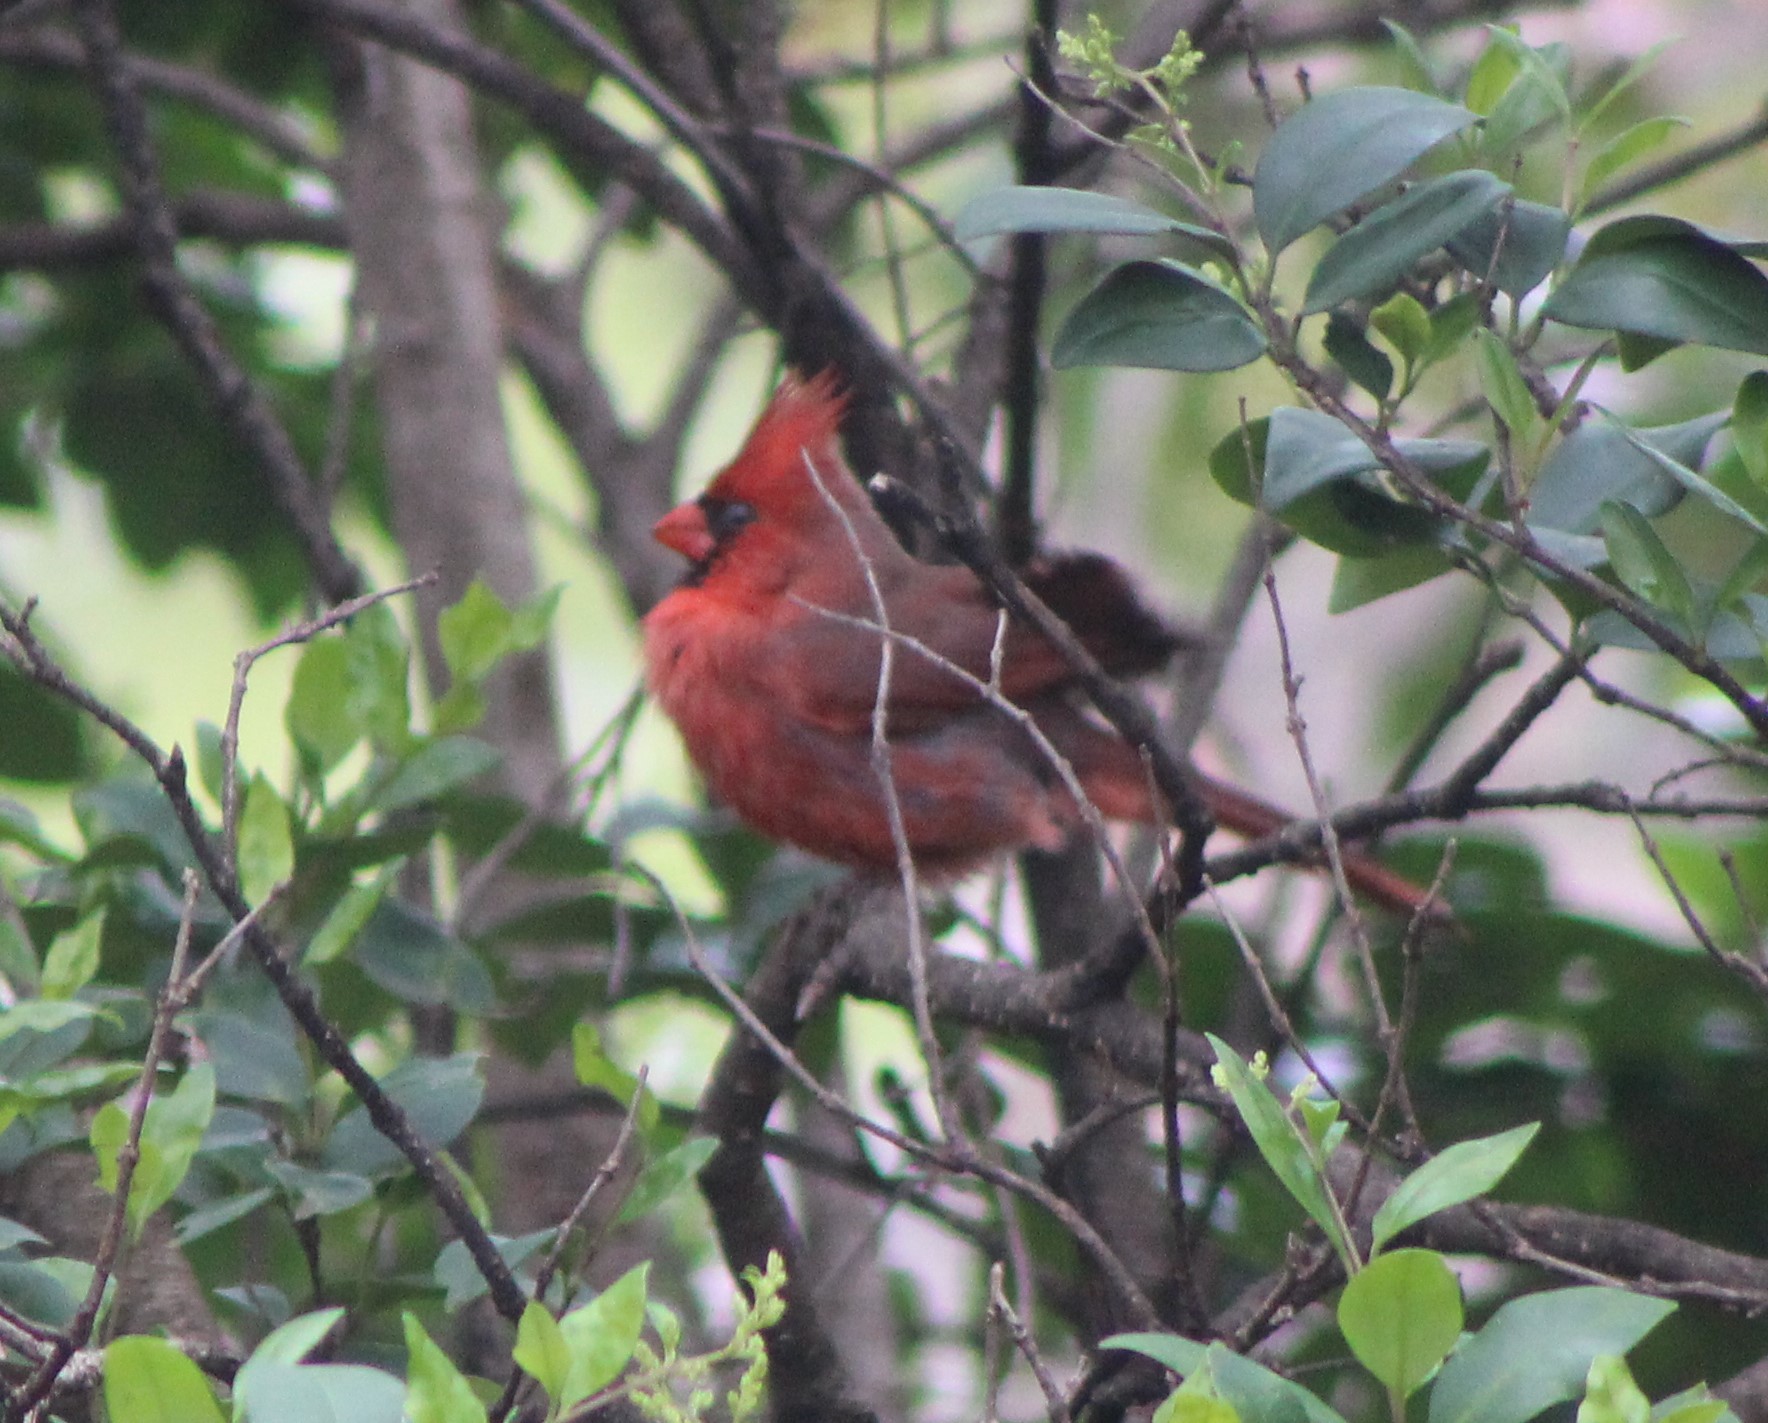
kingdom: Animalia
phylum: Chordata
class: Aves
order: Passeriformes
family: Cardinalidae
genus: Cardinalis
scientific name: Cardinalis cardinalis
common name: Northern cardinal
